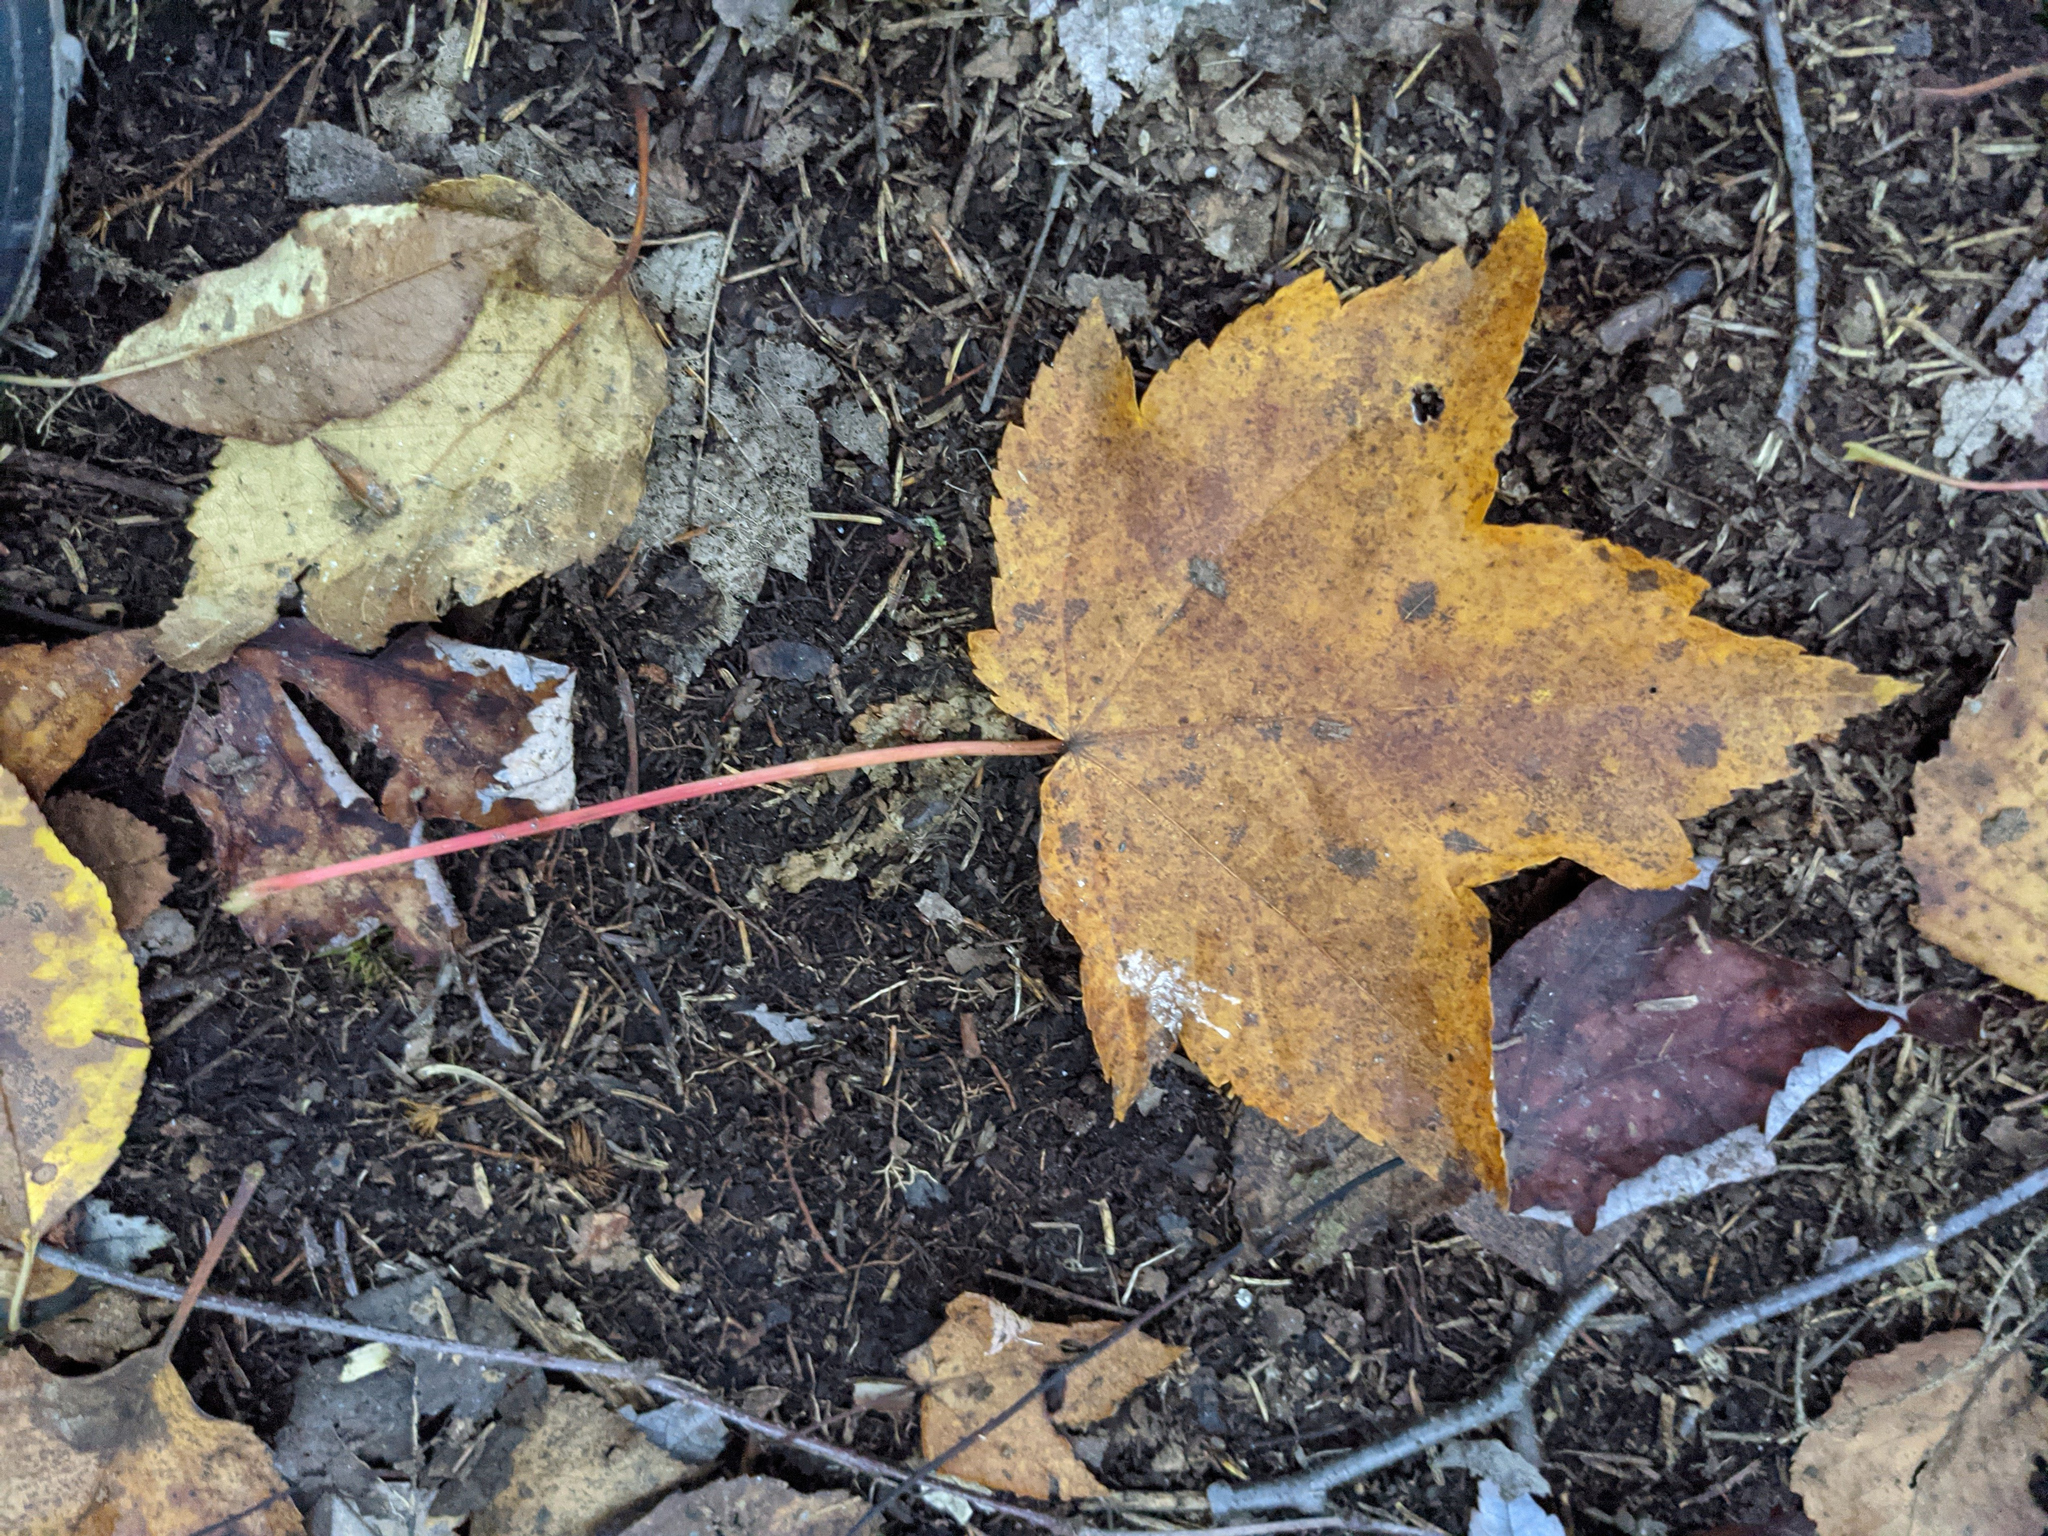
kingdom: Plantae
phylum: Tracheophyta
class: Magnoliopsida
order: Sapindales
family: Sapindaceae
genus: Acer
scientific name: Acer rubrum
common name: Red maple
